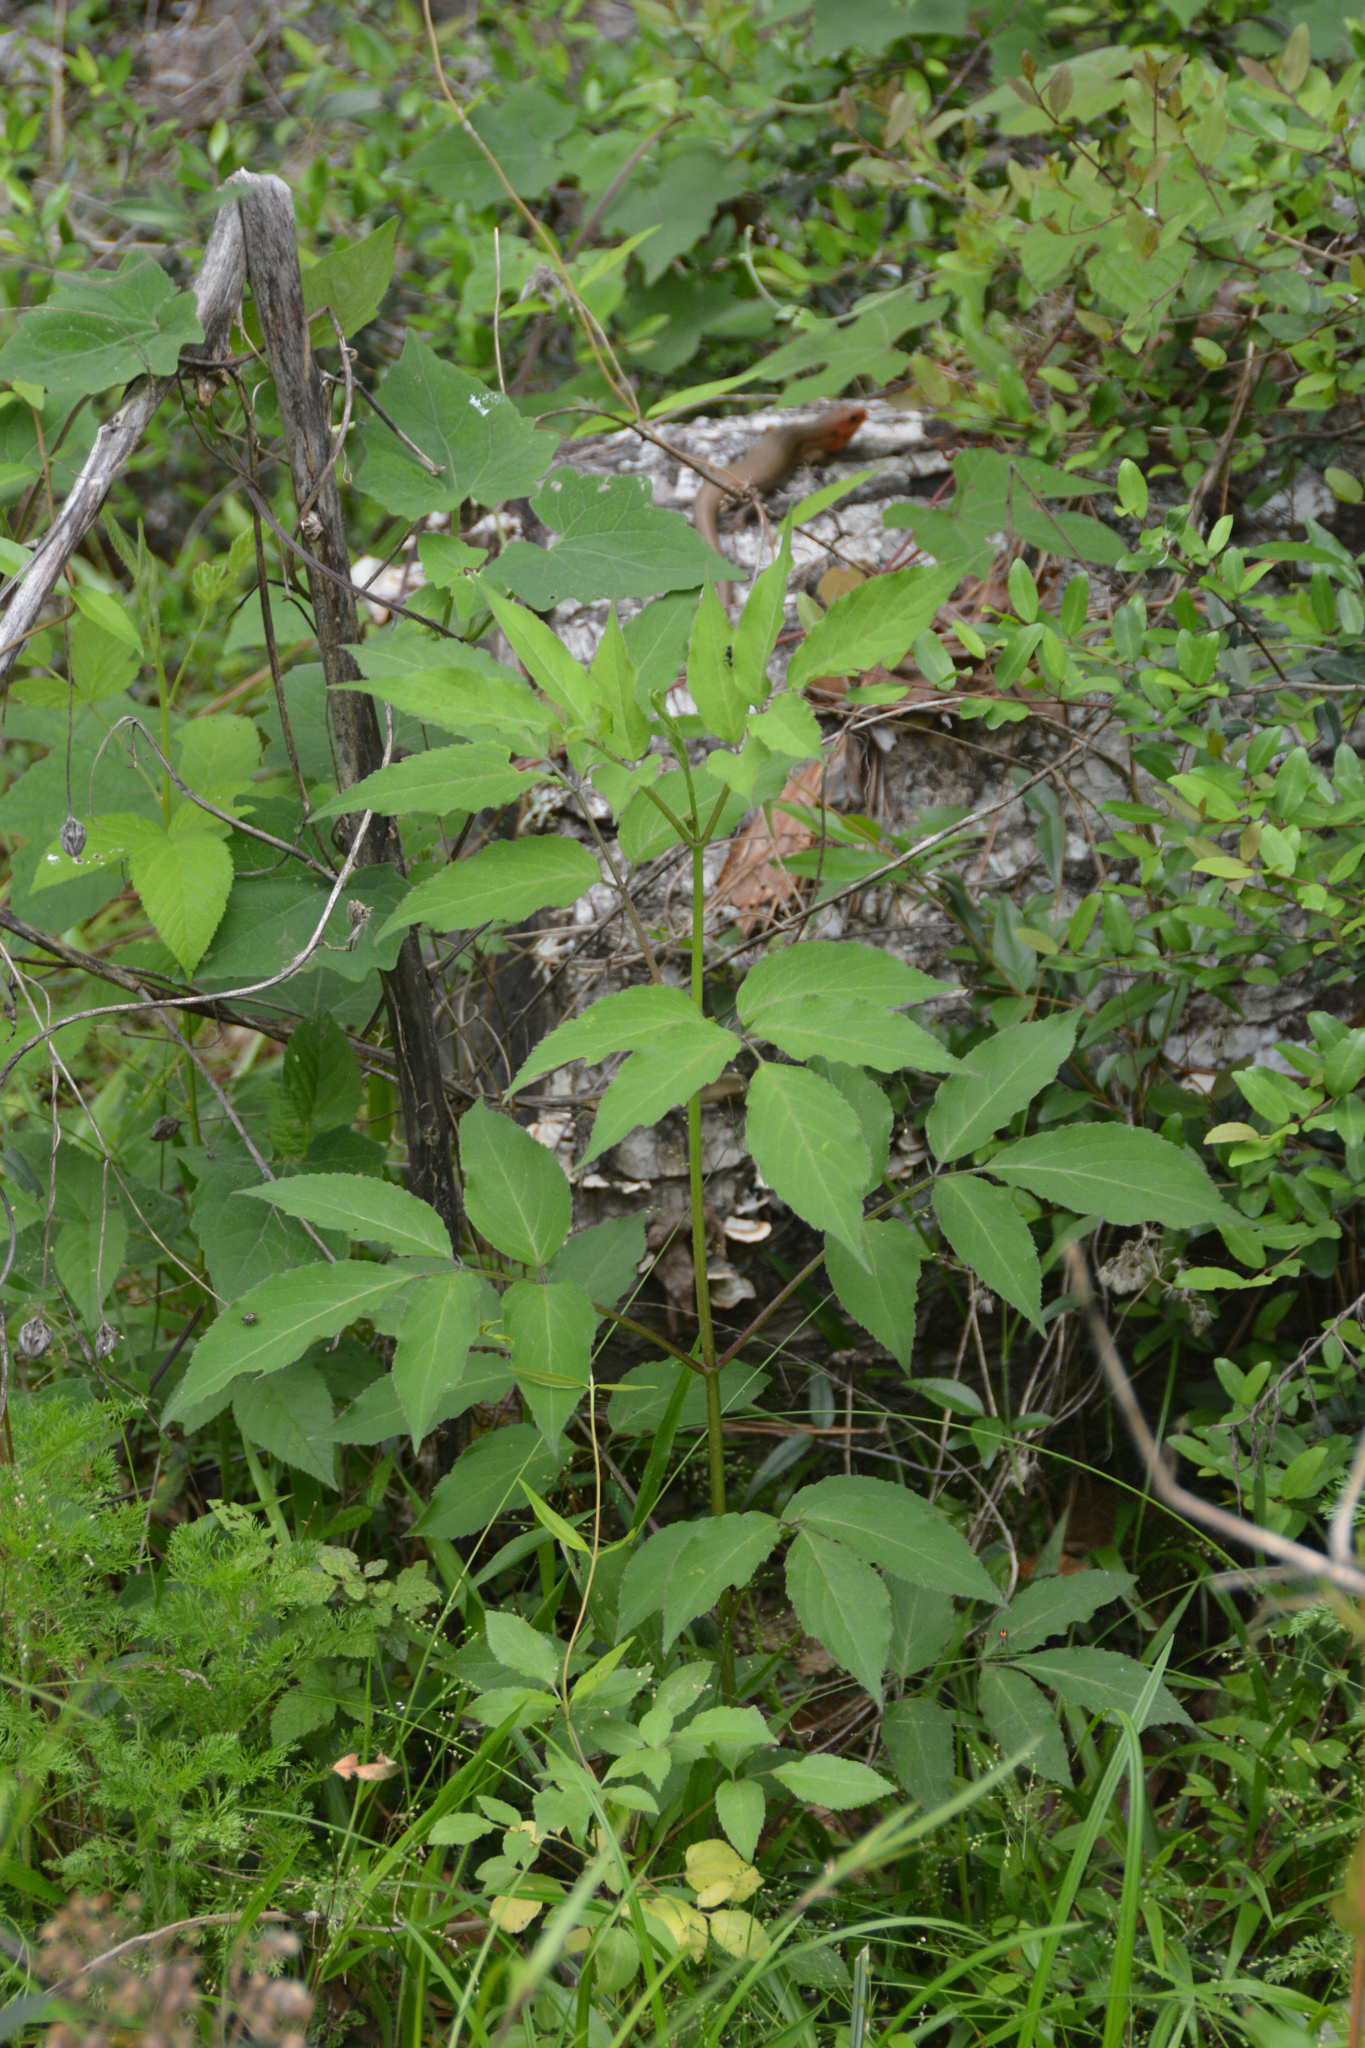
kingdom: Plantae
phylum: Tracheophyta
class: Magnoliopsida
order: Dipsacales
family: Viburnaceae
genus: Sambucus
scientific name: Sambucus canadensis
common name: American elder
